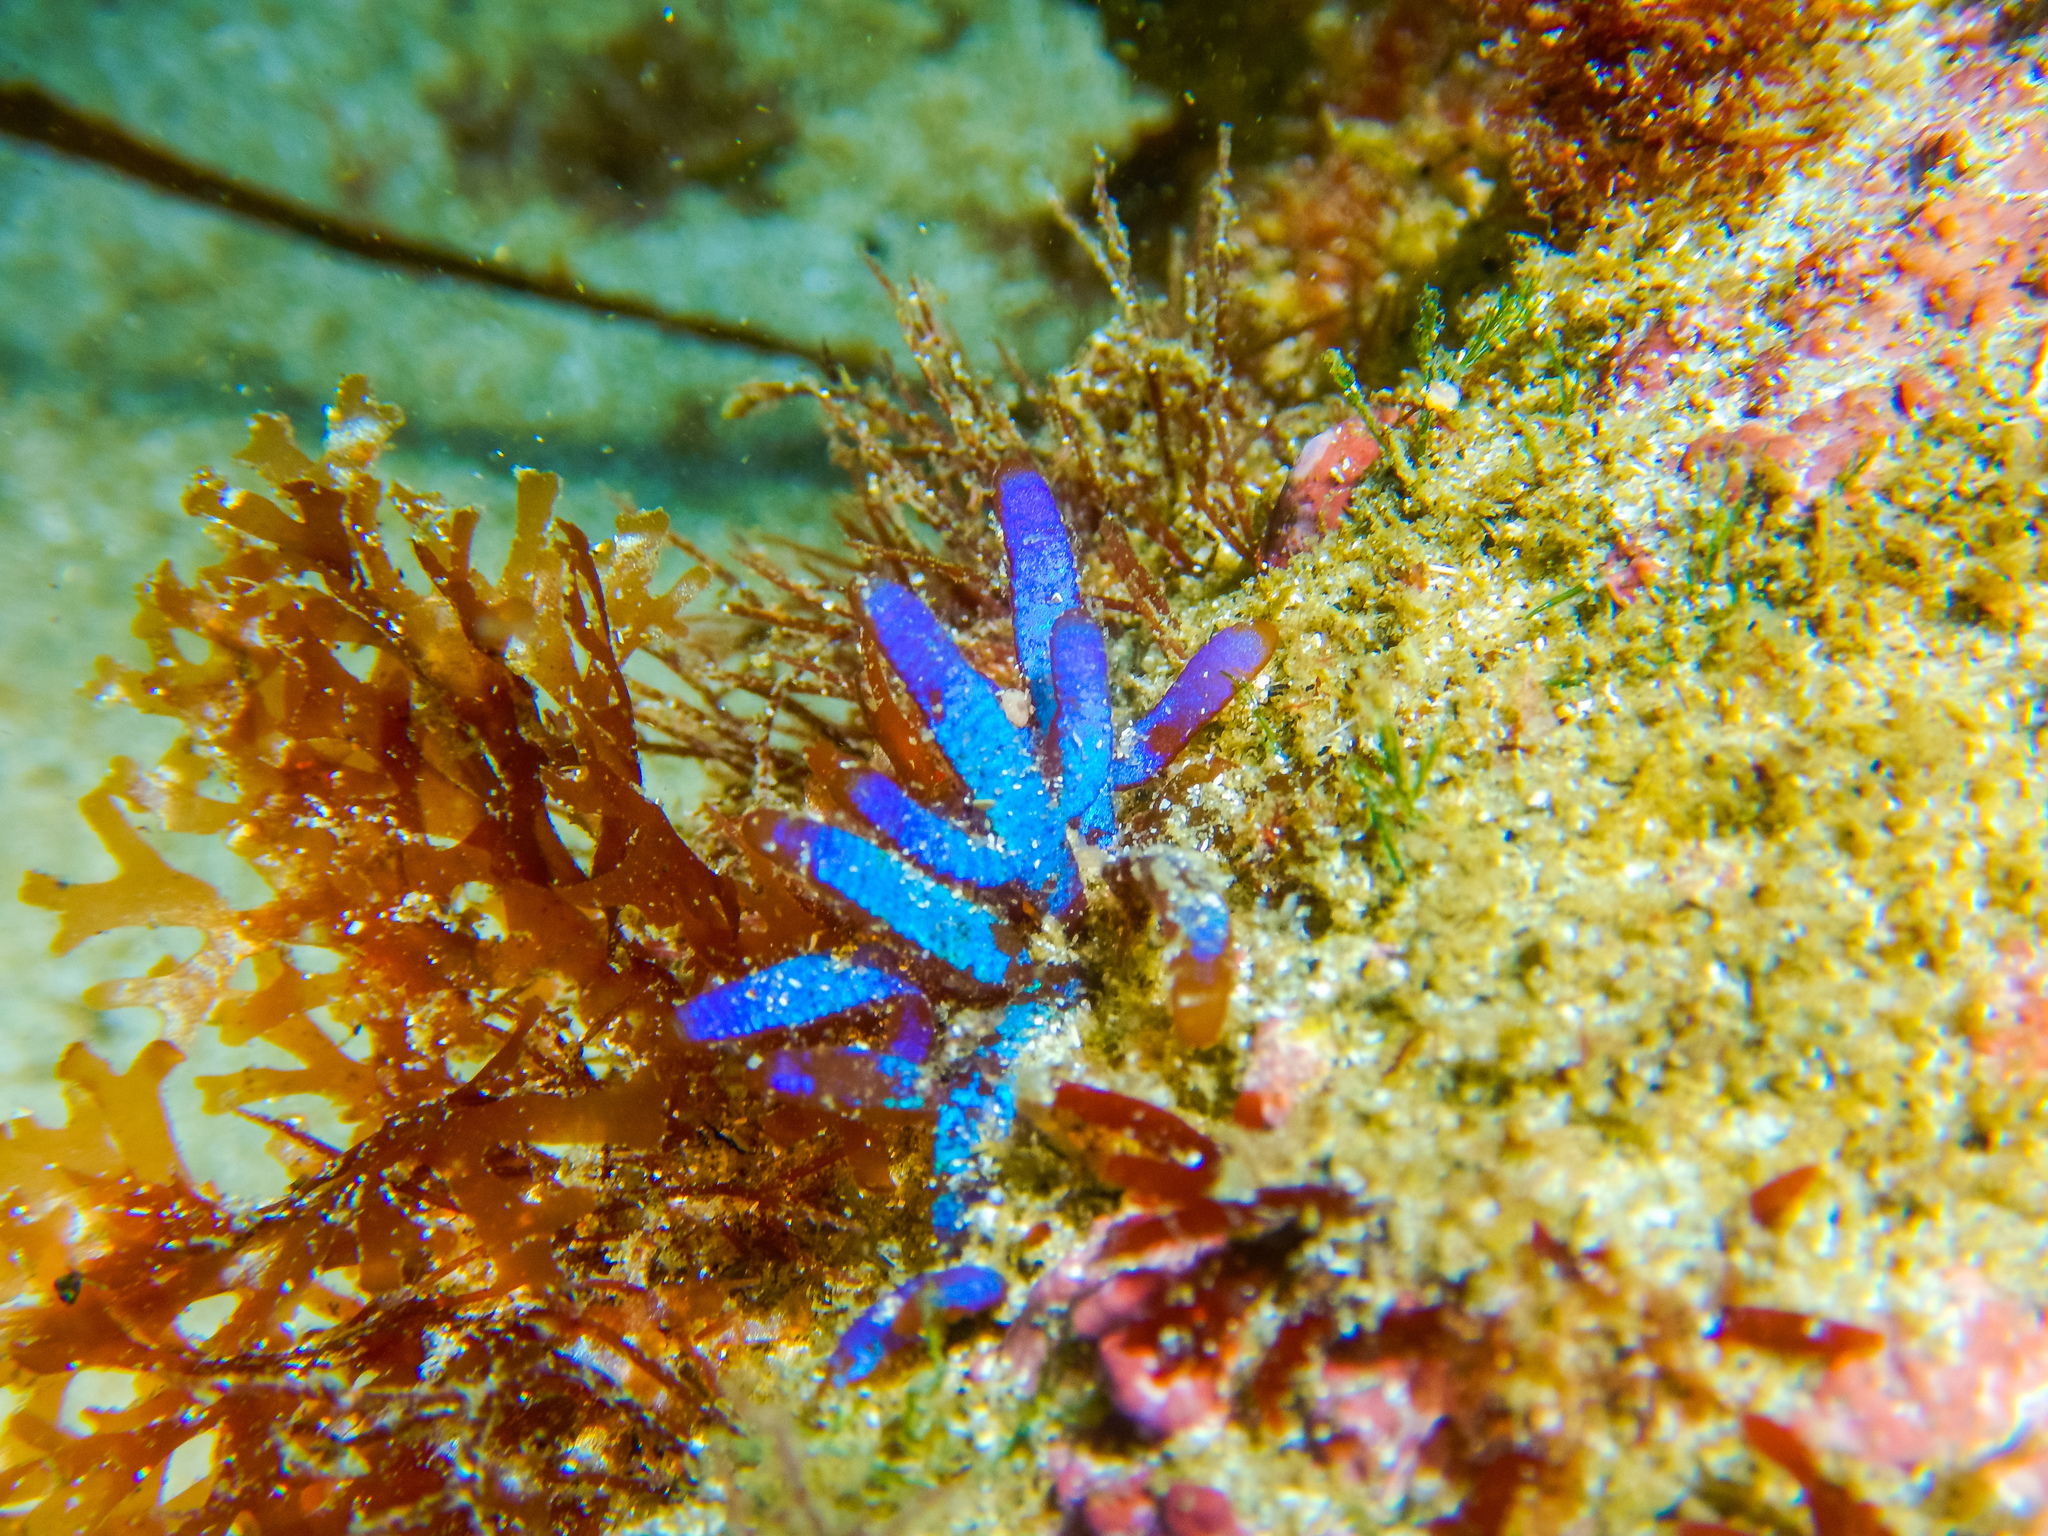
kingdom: Plantae
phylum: Rhodophyta
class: Florideophyceae
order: Rhodymeniales
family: Champiaceae
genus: Champia
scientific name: Champia laingii
